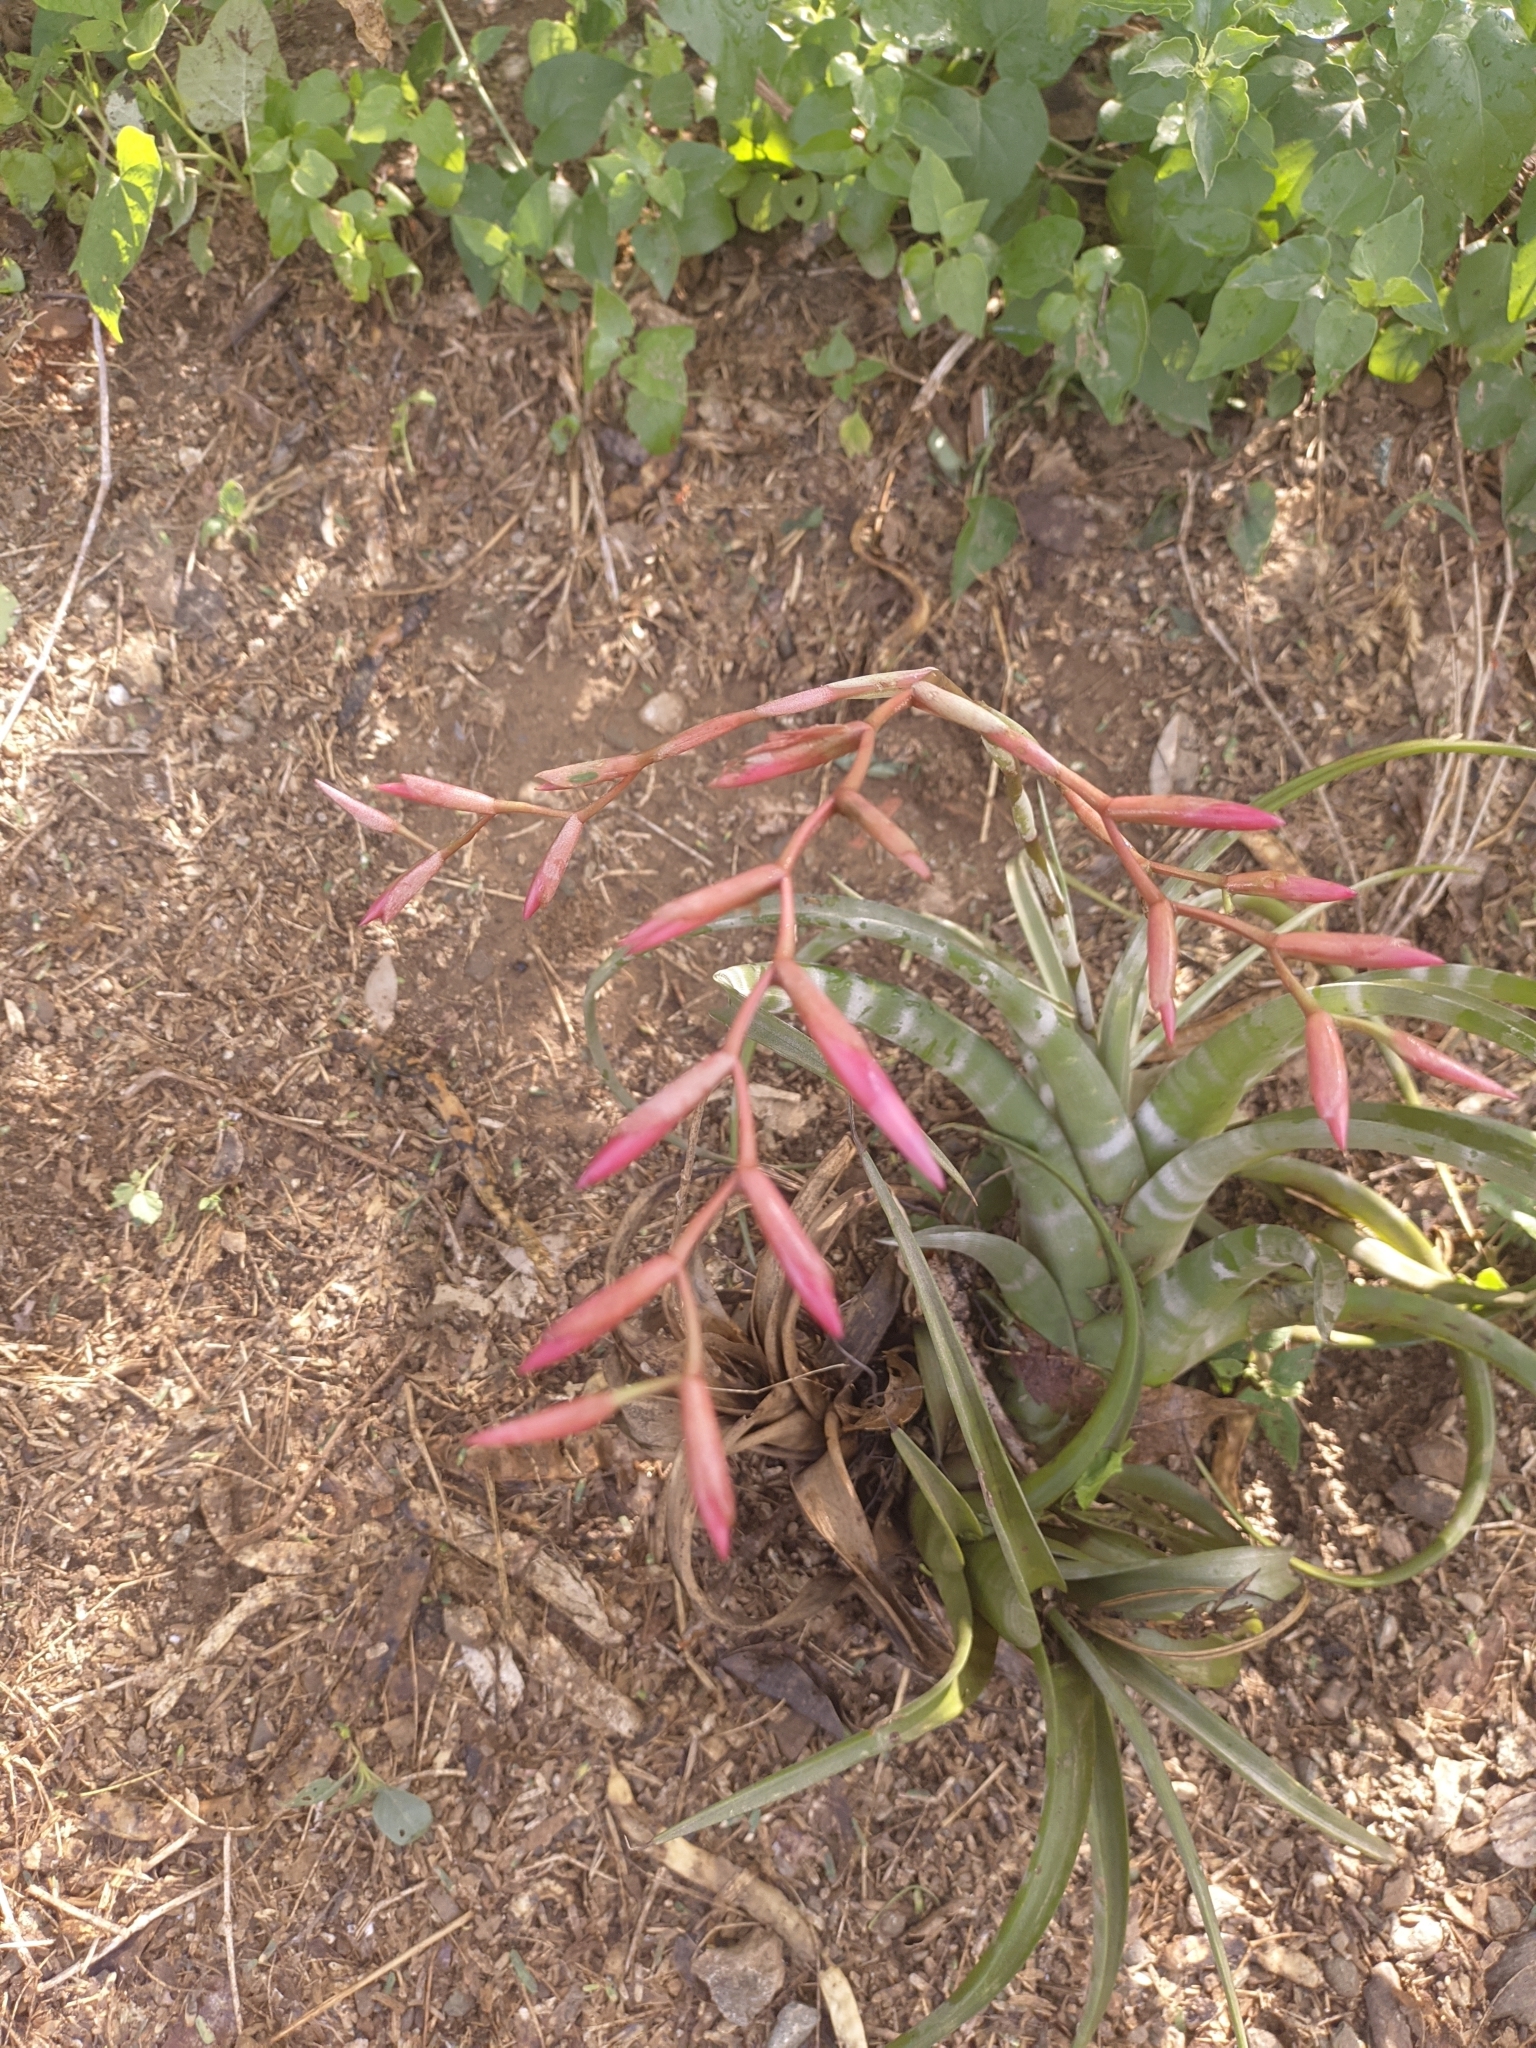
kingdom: Plantae
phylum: Tracheophyta
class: Liliopsida
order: Poales
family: Bromeliaceae
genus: Tillandsia
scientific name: Tillandsia flexuosa
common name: Banded airplant
